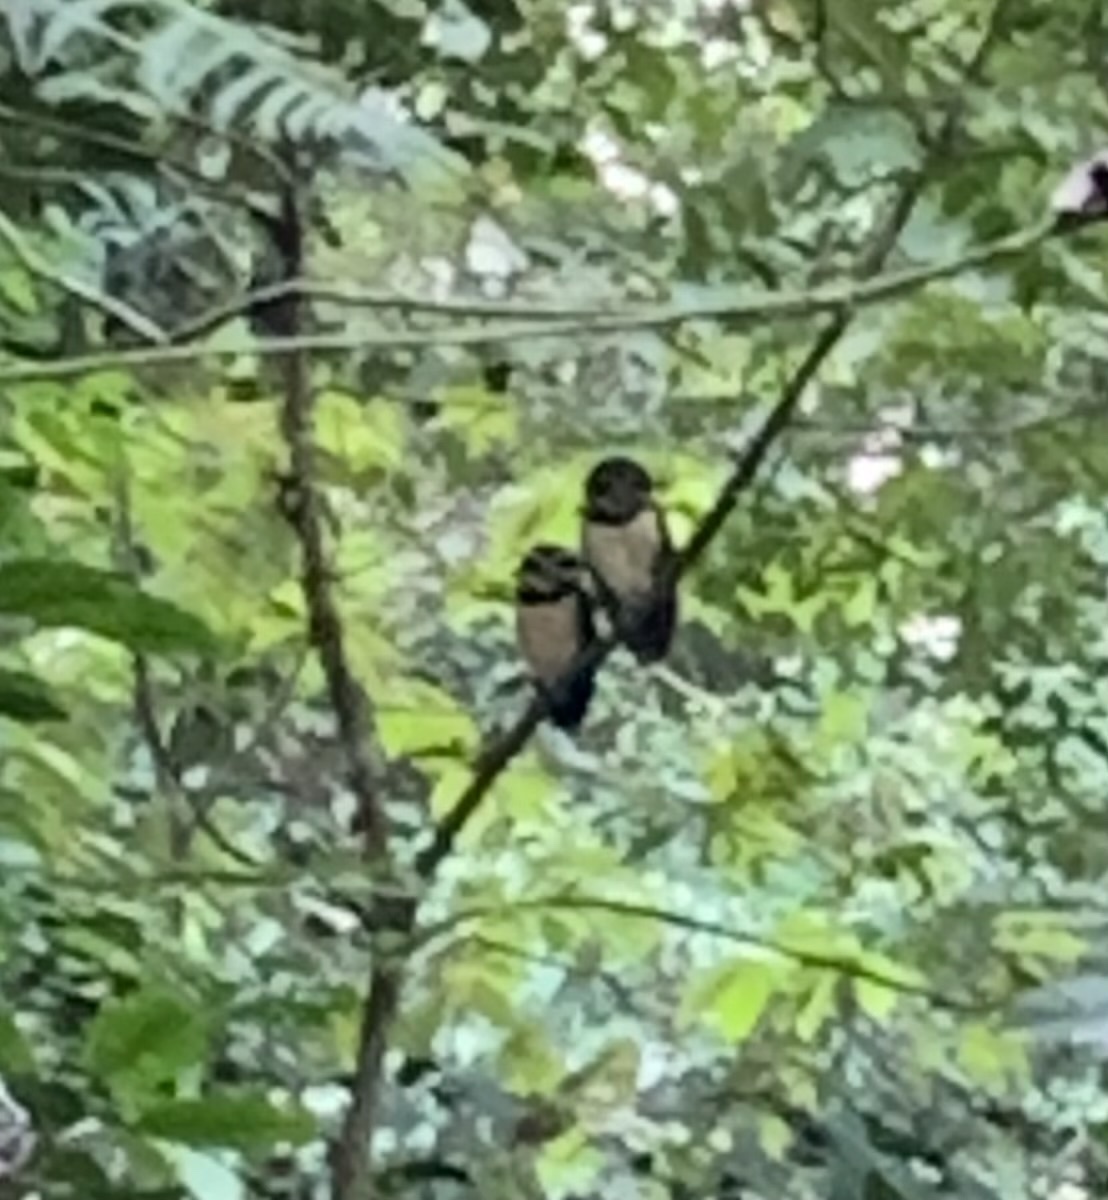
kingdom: Animalia
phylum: Chordata
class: Aves
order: Strigiformes
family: Strigidae
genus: Pulsatrix
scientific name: Pulsatrix perspicillata
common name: Spectacled owl
